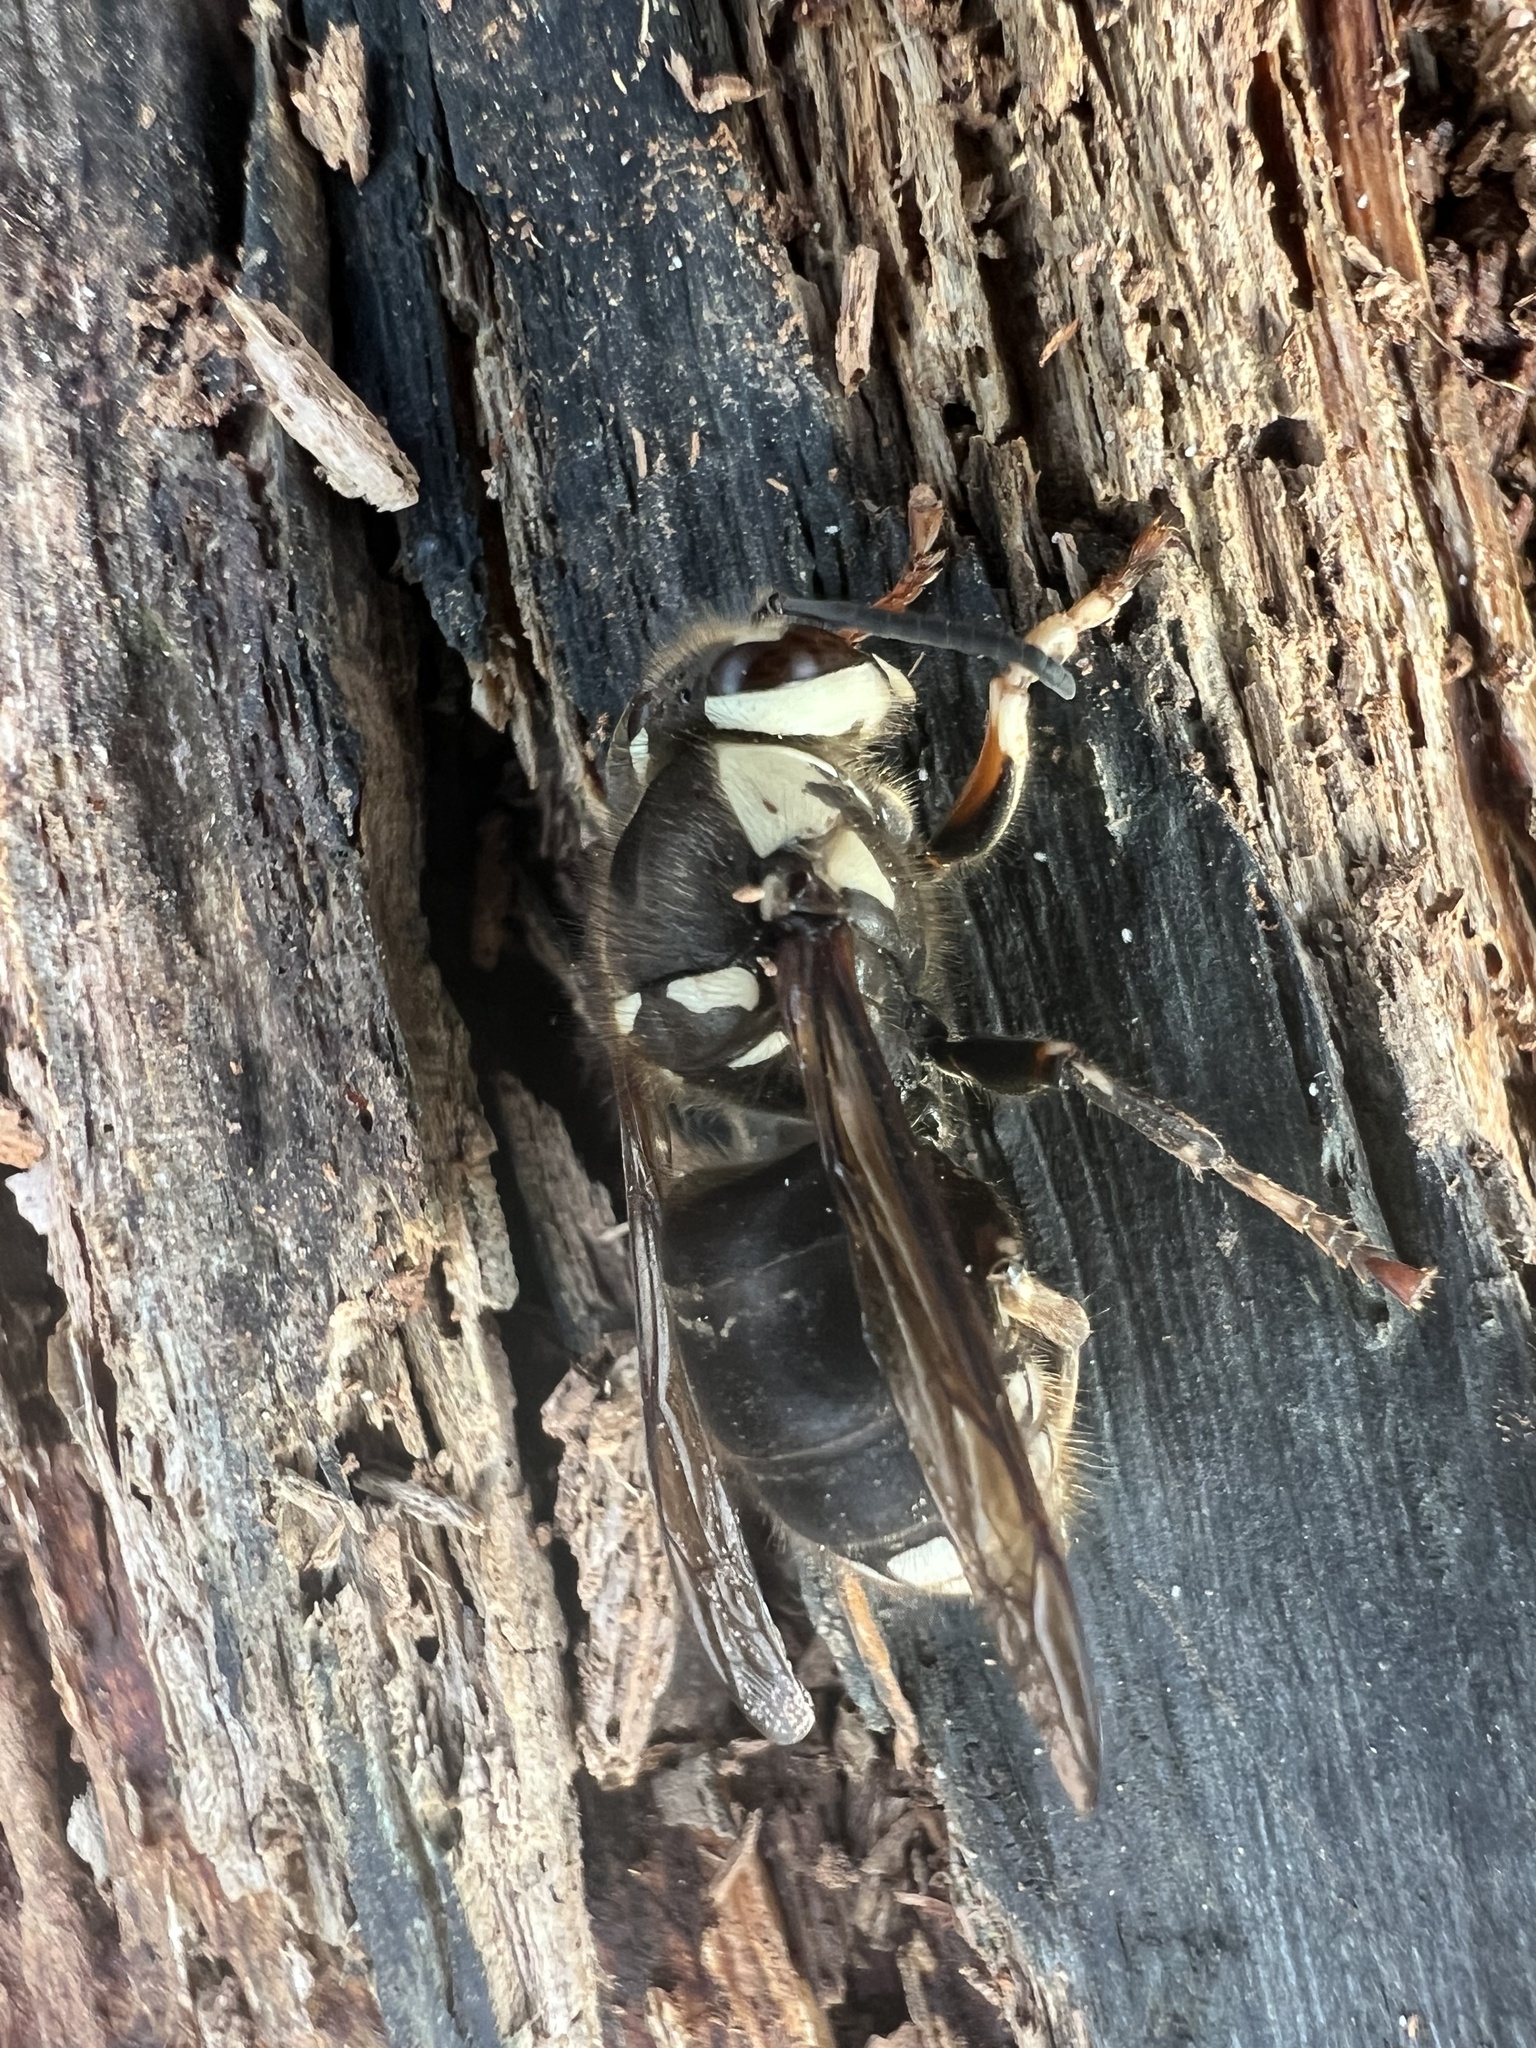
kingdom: Animalia
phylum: Arthropoda
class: Insecta
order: Hymenoptera
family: Vespidae
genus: Dolichovespula
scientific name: Dolichovespula maculata
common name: Bald-faced hornet
